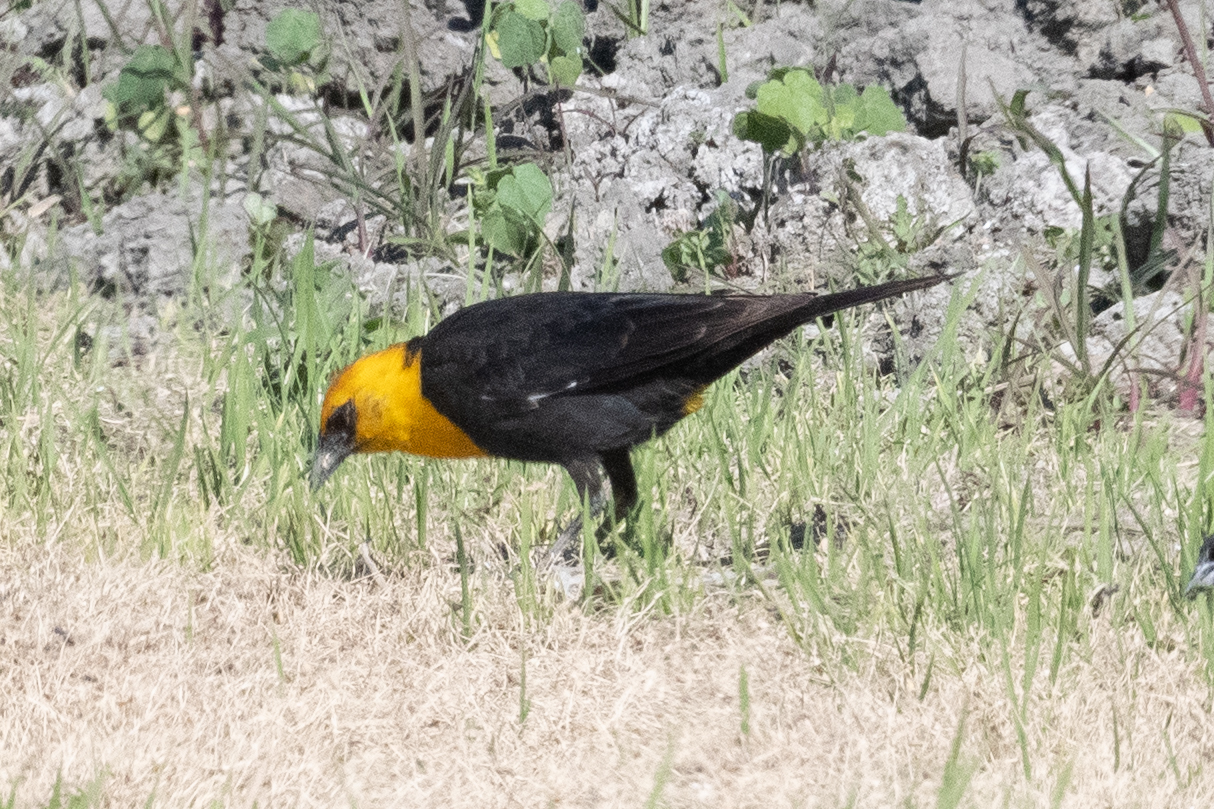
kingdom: Animalia
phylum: Chordata
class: Aves
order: Passeriformes
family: Icteridae
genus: Xanthocephalus
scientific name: Xanthocephalus xanthocephalus
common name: Yellow-headed blackbird
